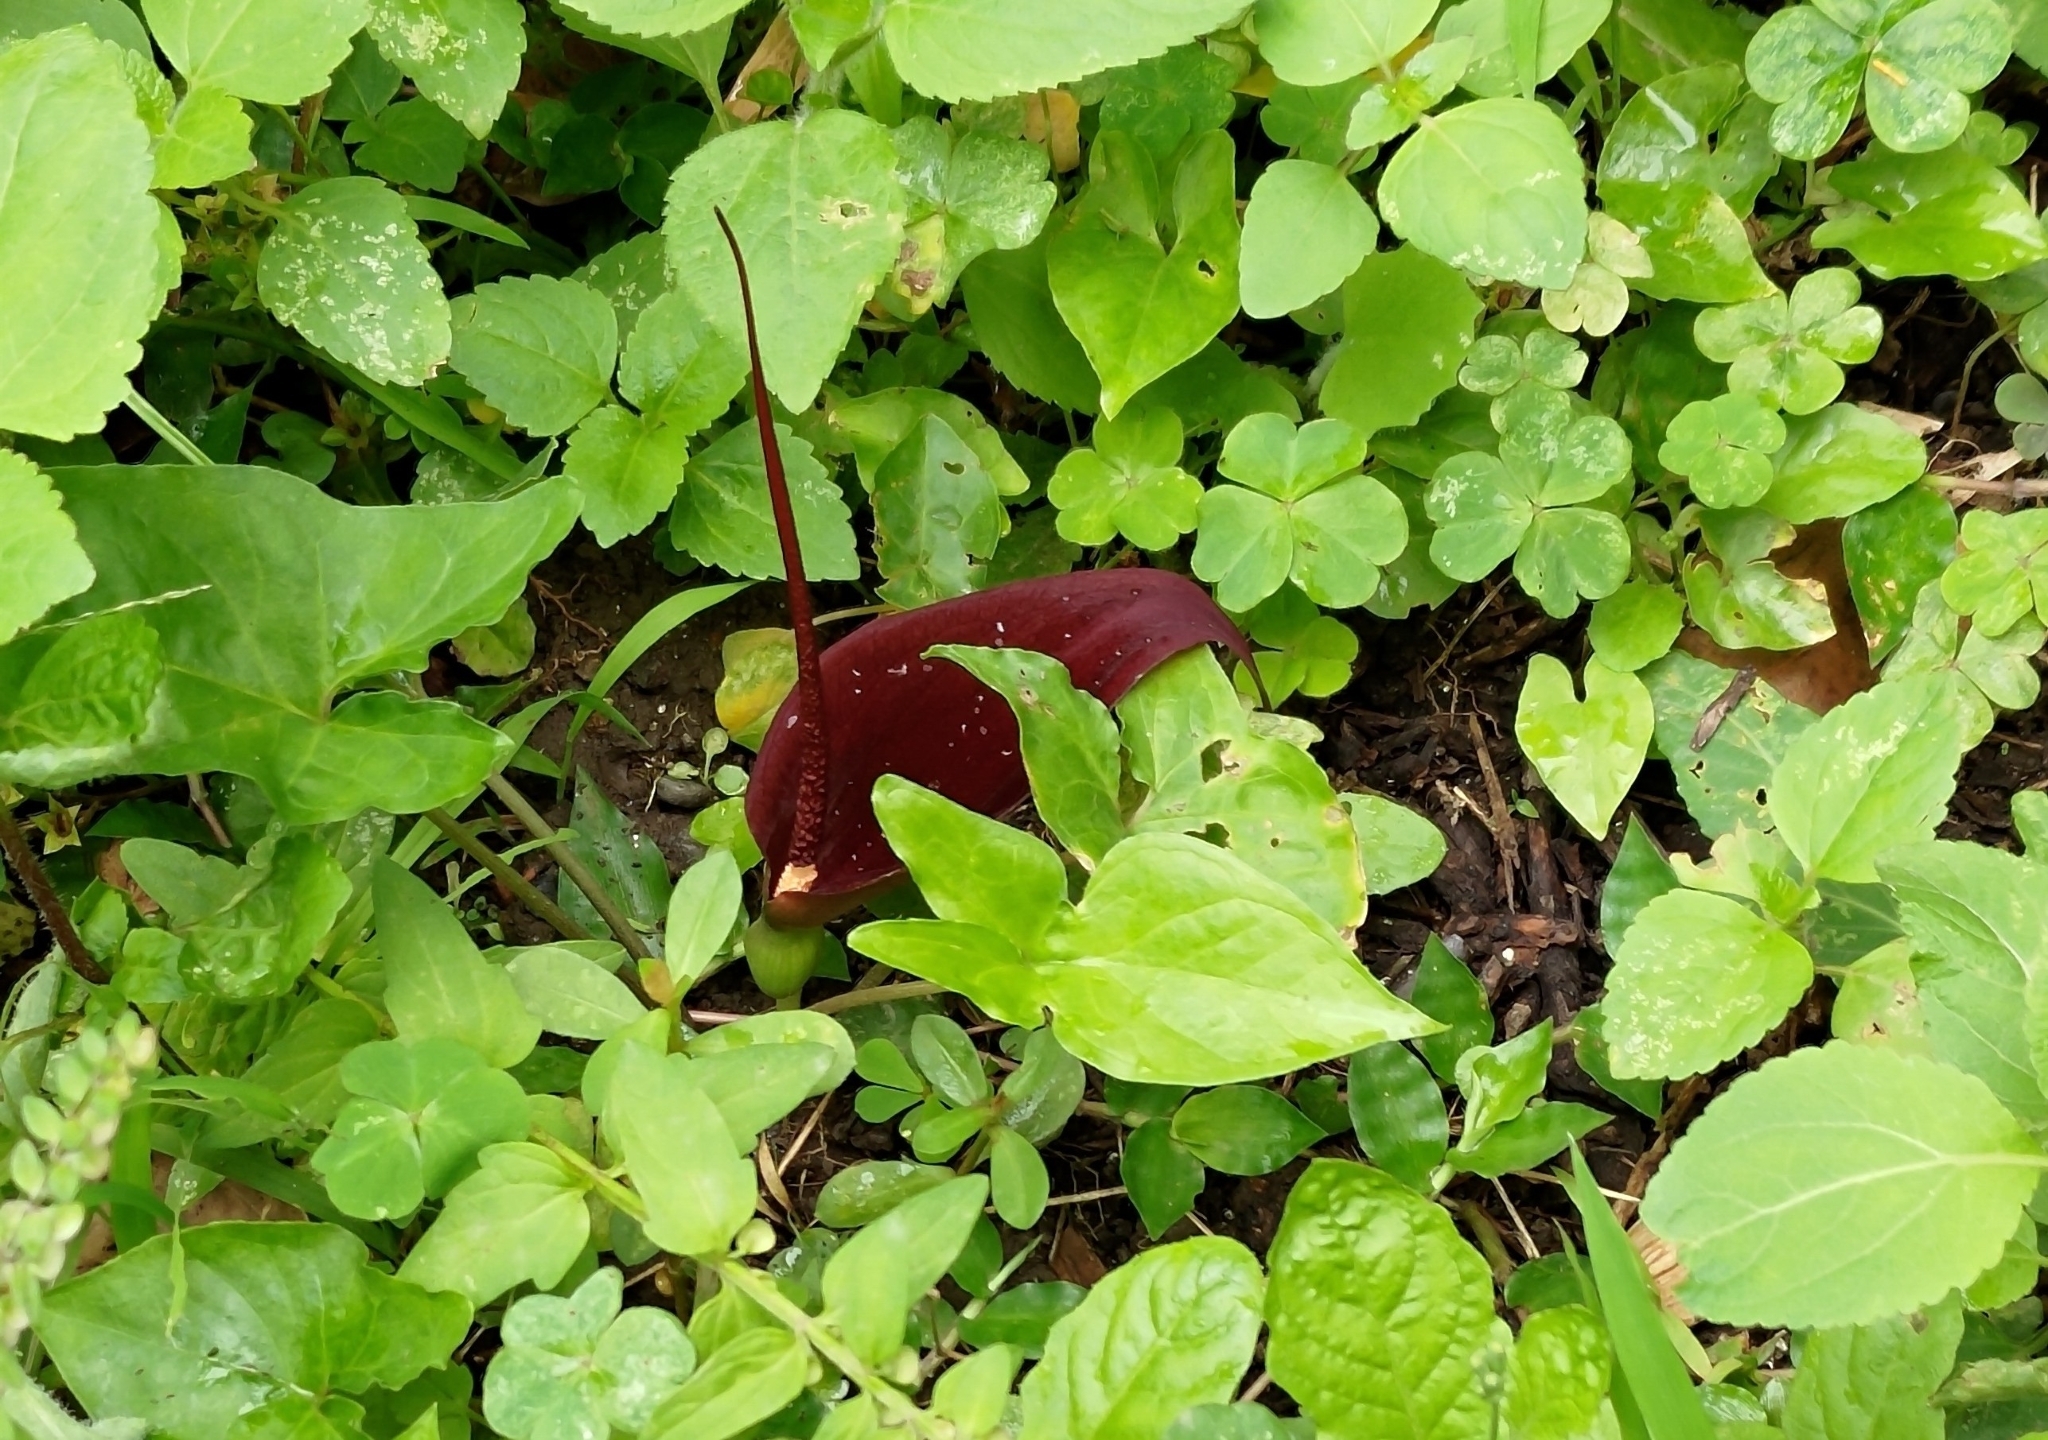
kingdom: Plantae
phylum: Tracheophyta
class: Liliopsida
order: Alismatales
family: Araceae
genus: Typhonium
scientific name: Typhonium blumei
